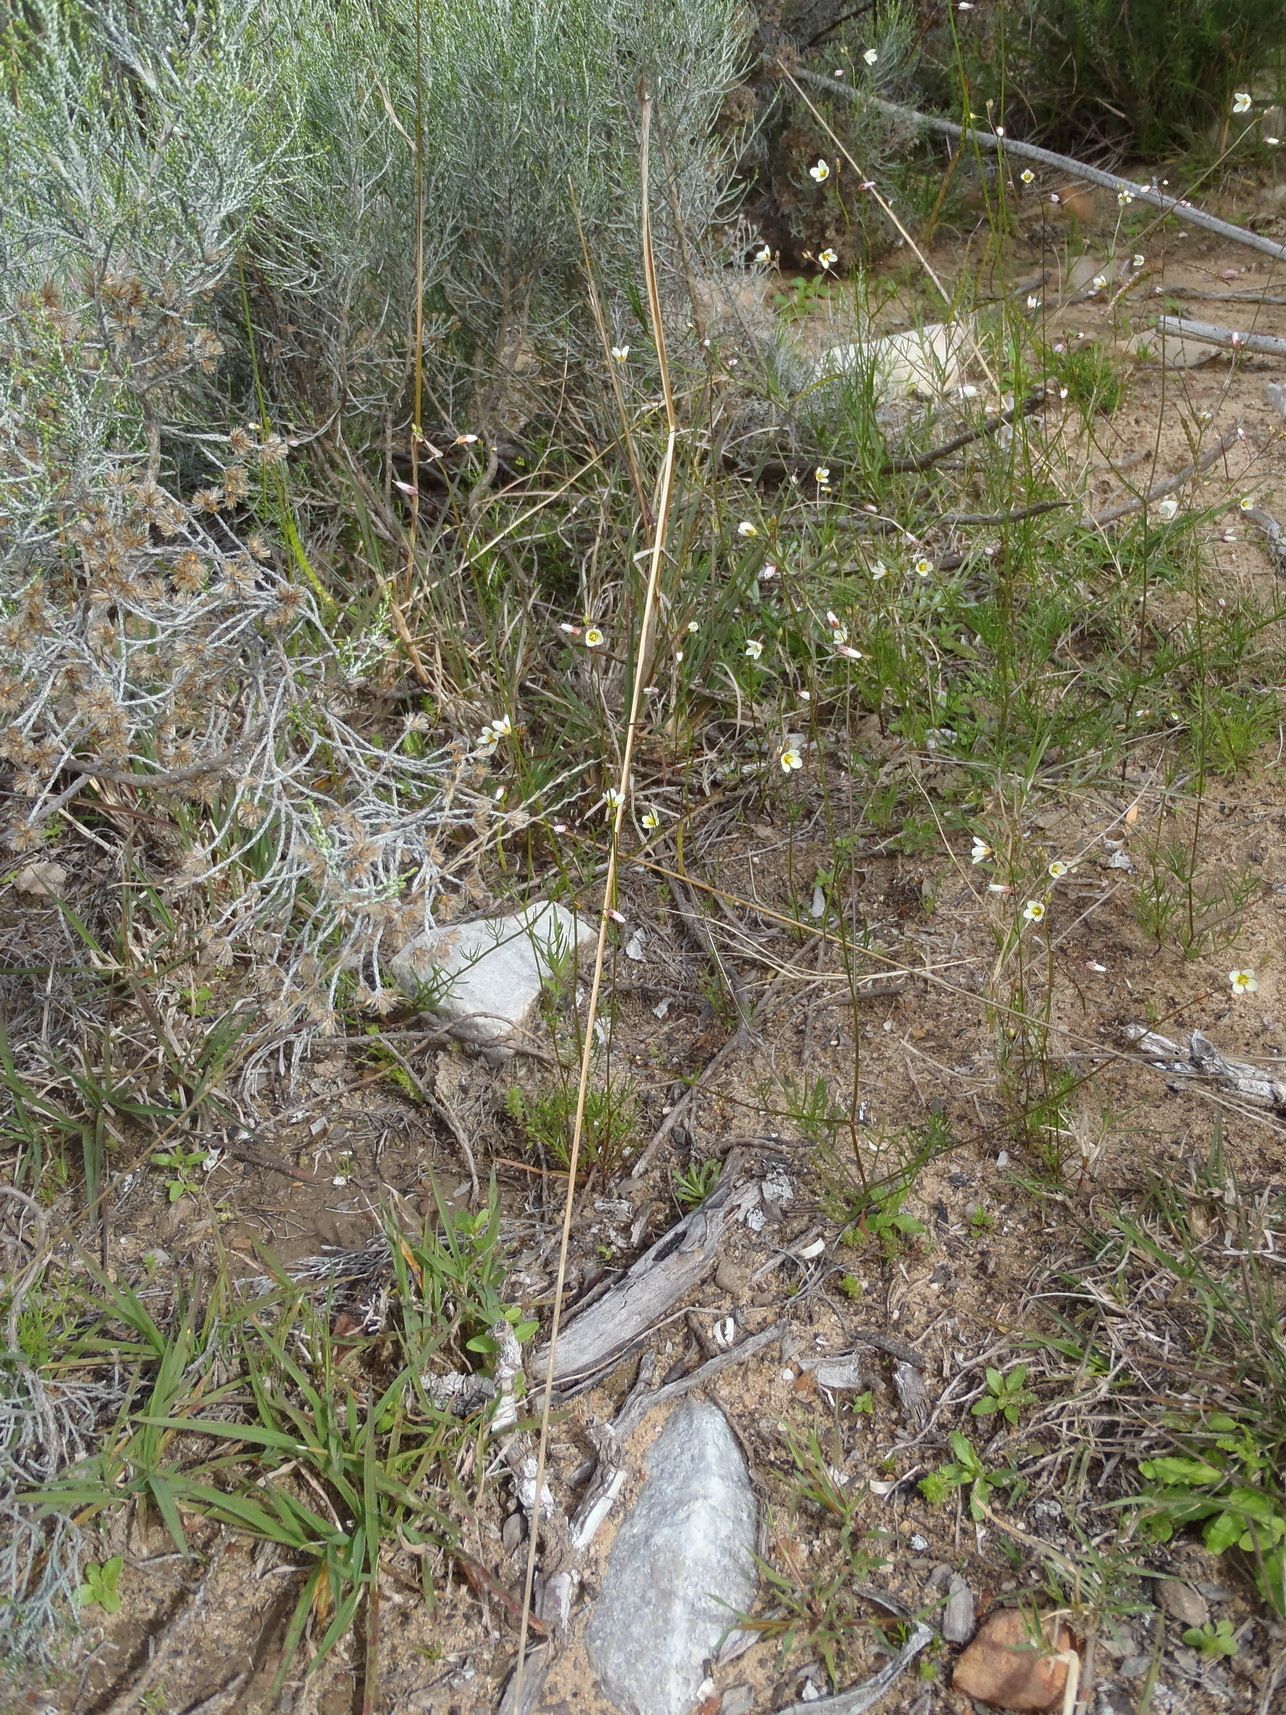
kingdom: Plantae
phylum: Tracheophyta
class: Magnoliopsida
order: Brassicales
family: Brassicaceae
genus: Heliophila
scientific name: Heliophila pendula
